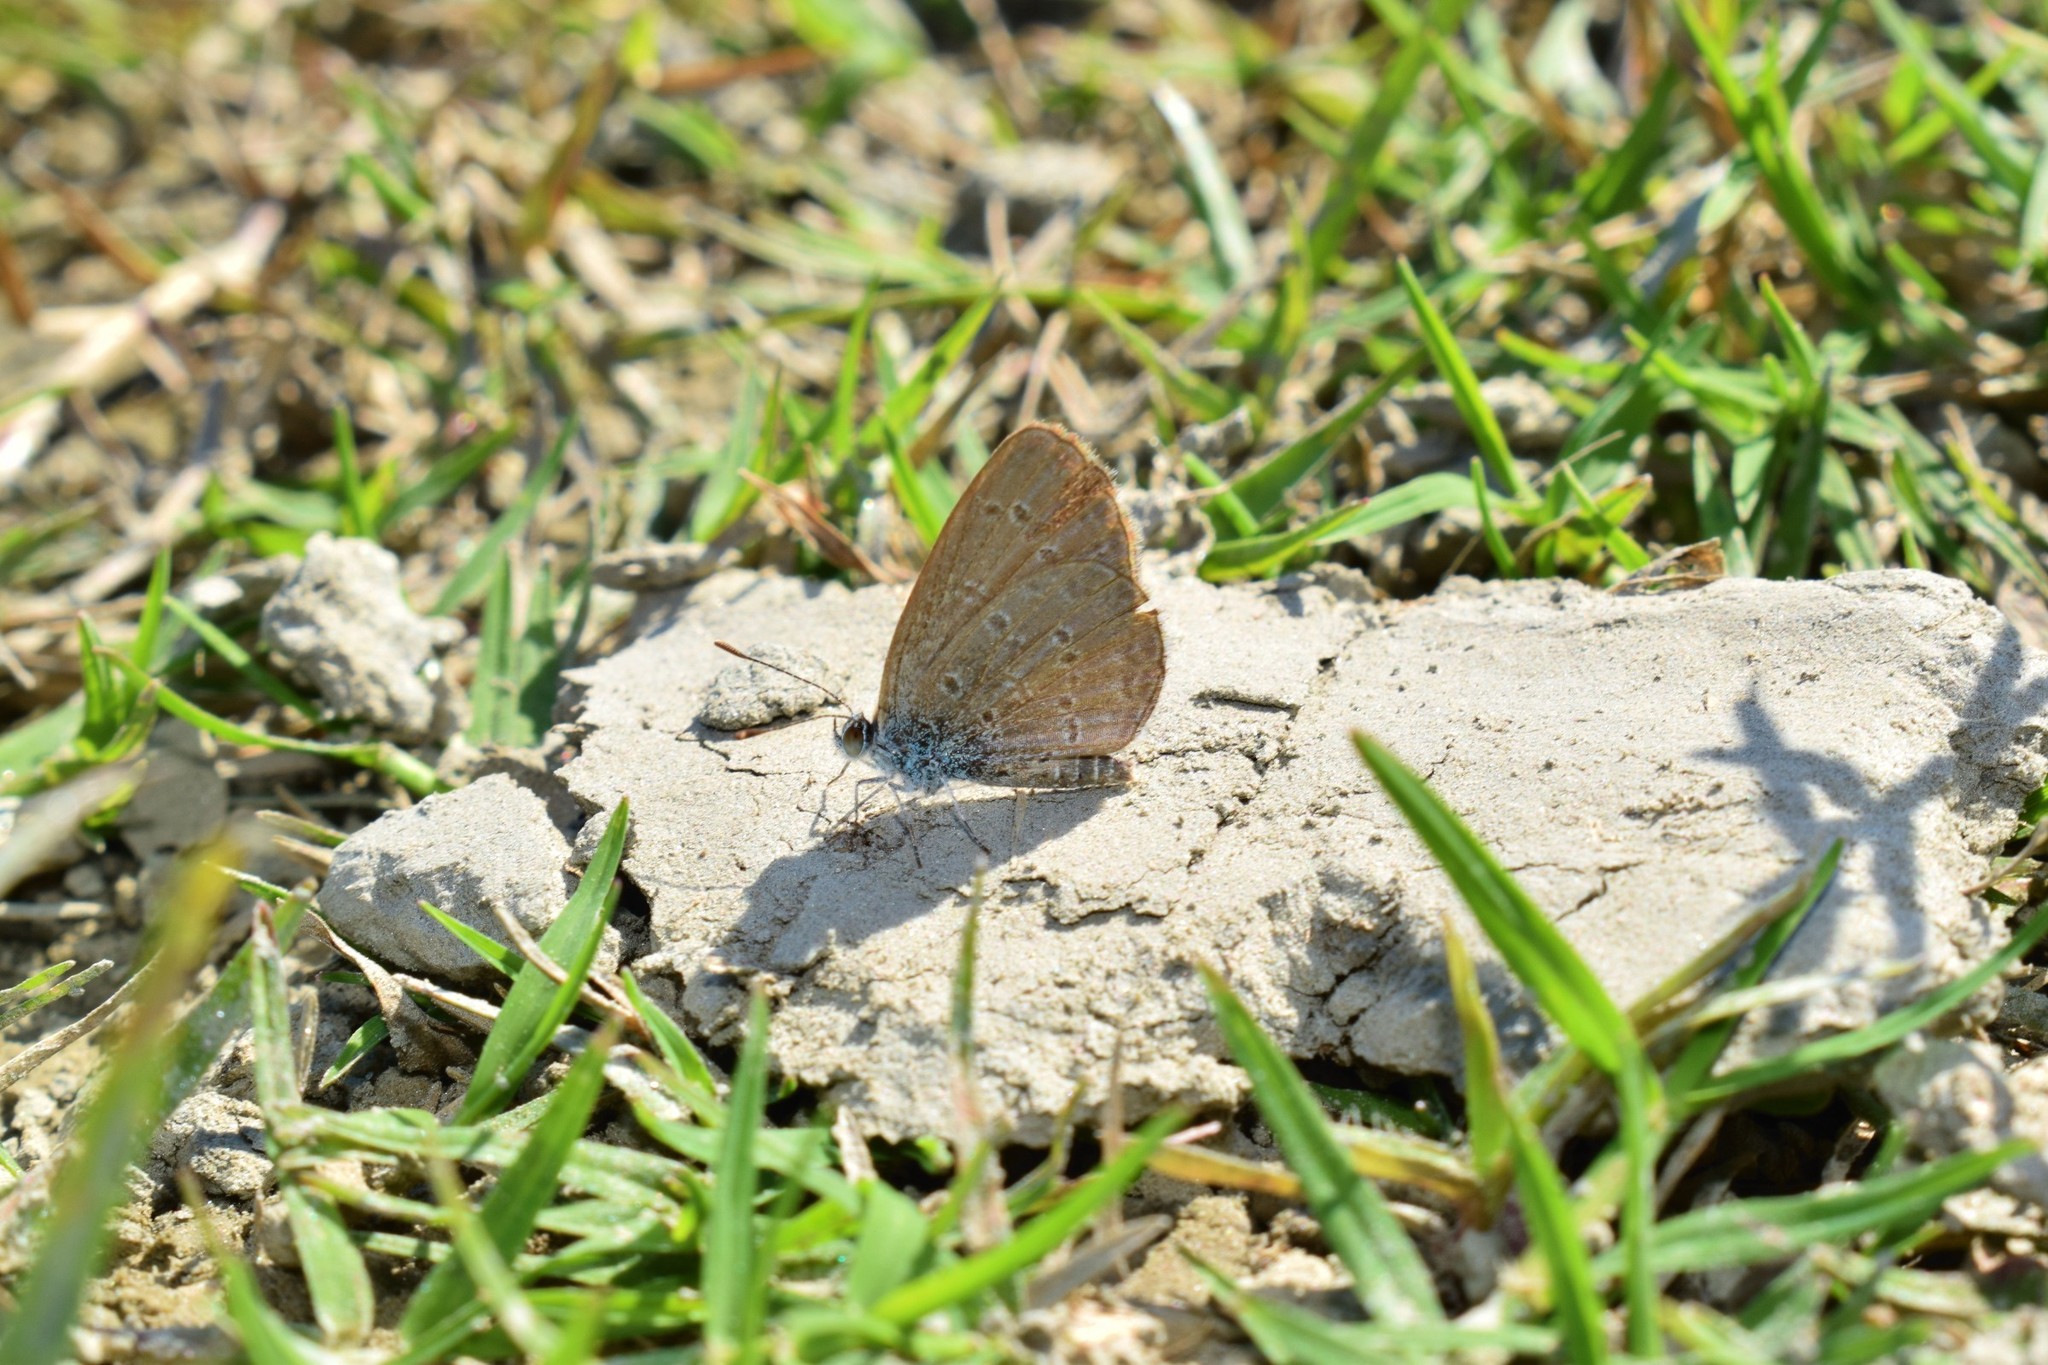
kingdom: Animalia
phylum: Arthropoda
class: Insecta
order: Lepidoptera
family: Lycaenidae
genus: Zizina
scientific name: Zizina otis
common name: Lesser grass blue
